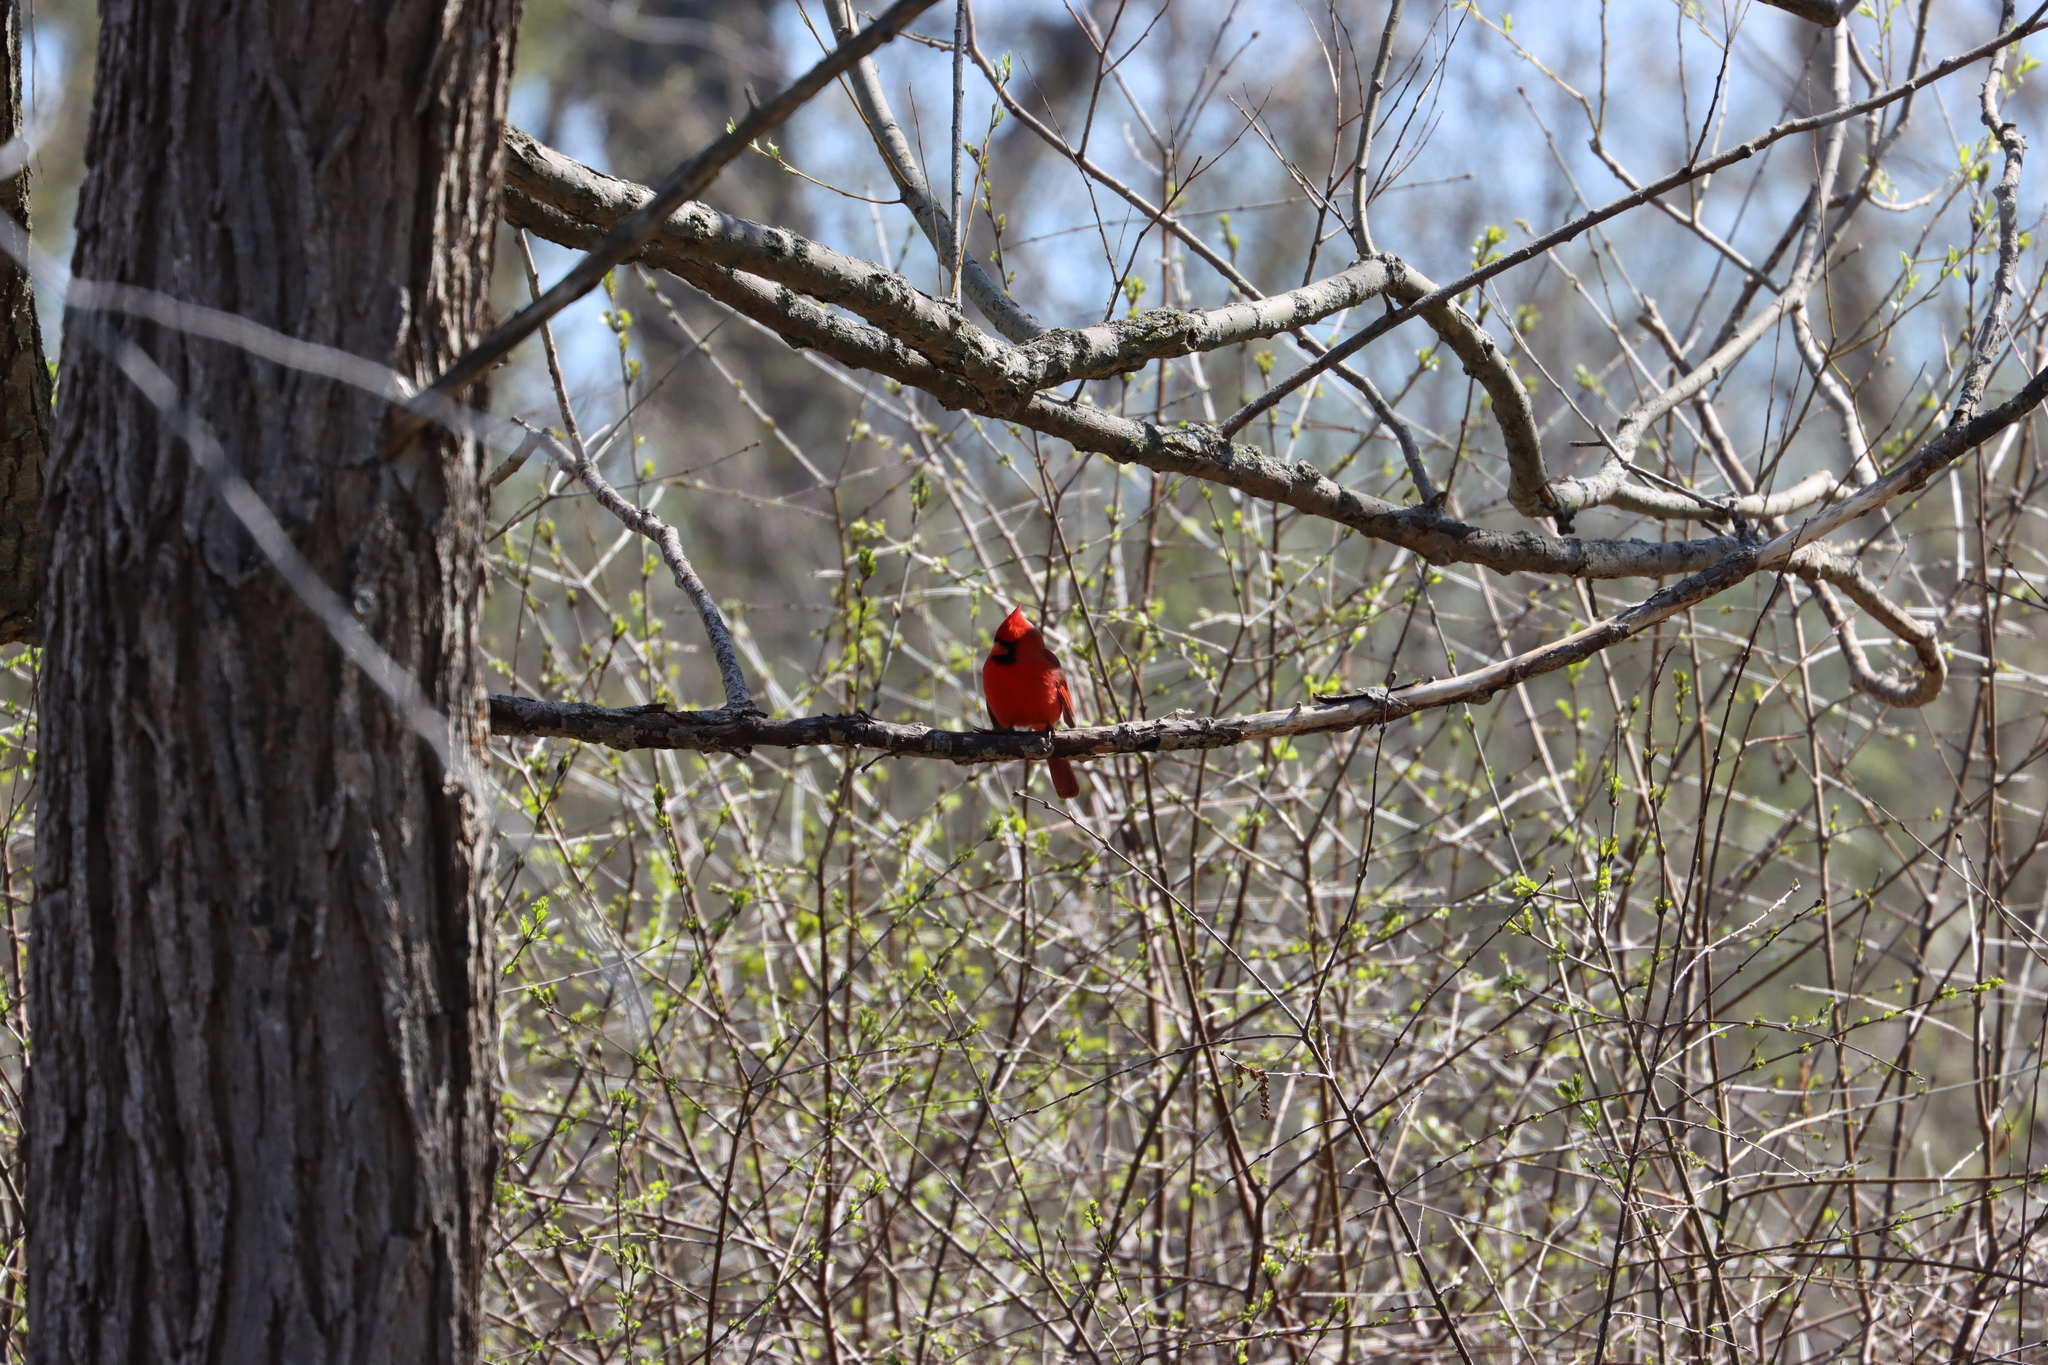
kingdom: Animalia
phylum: Chordata
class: Aves
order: Passeriformes
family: Cardinalidae
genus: Cardinalis
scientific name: Cardinalis cardinalis
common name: Northern cardinal
